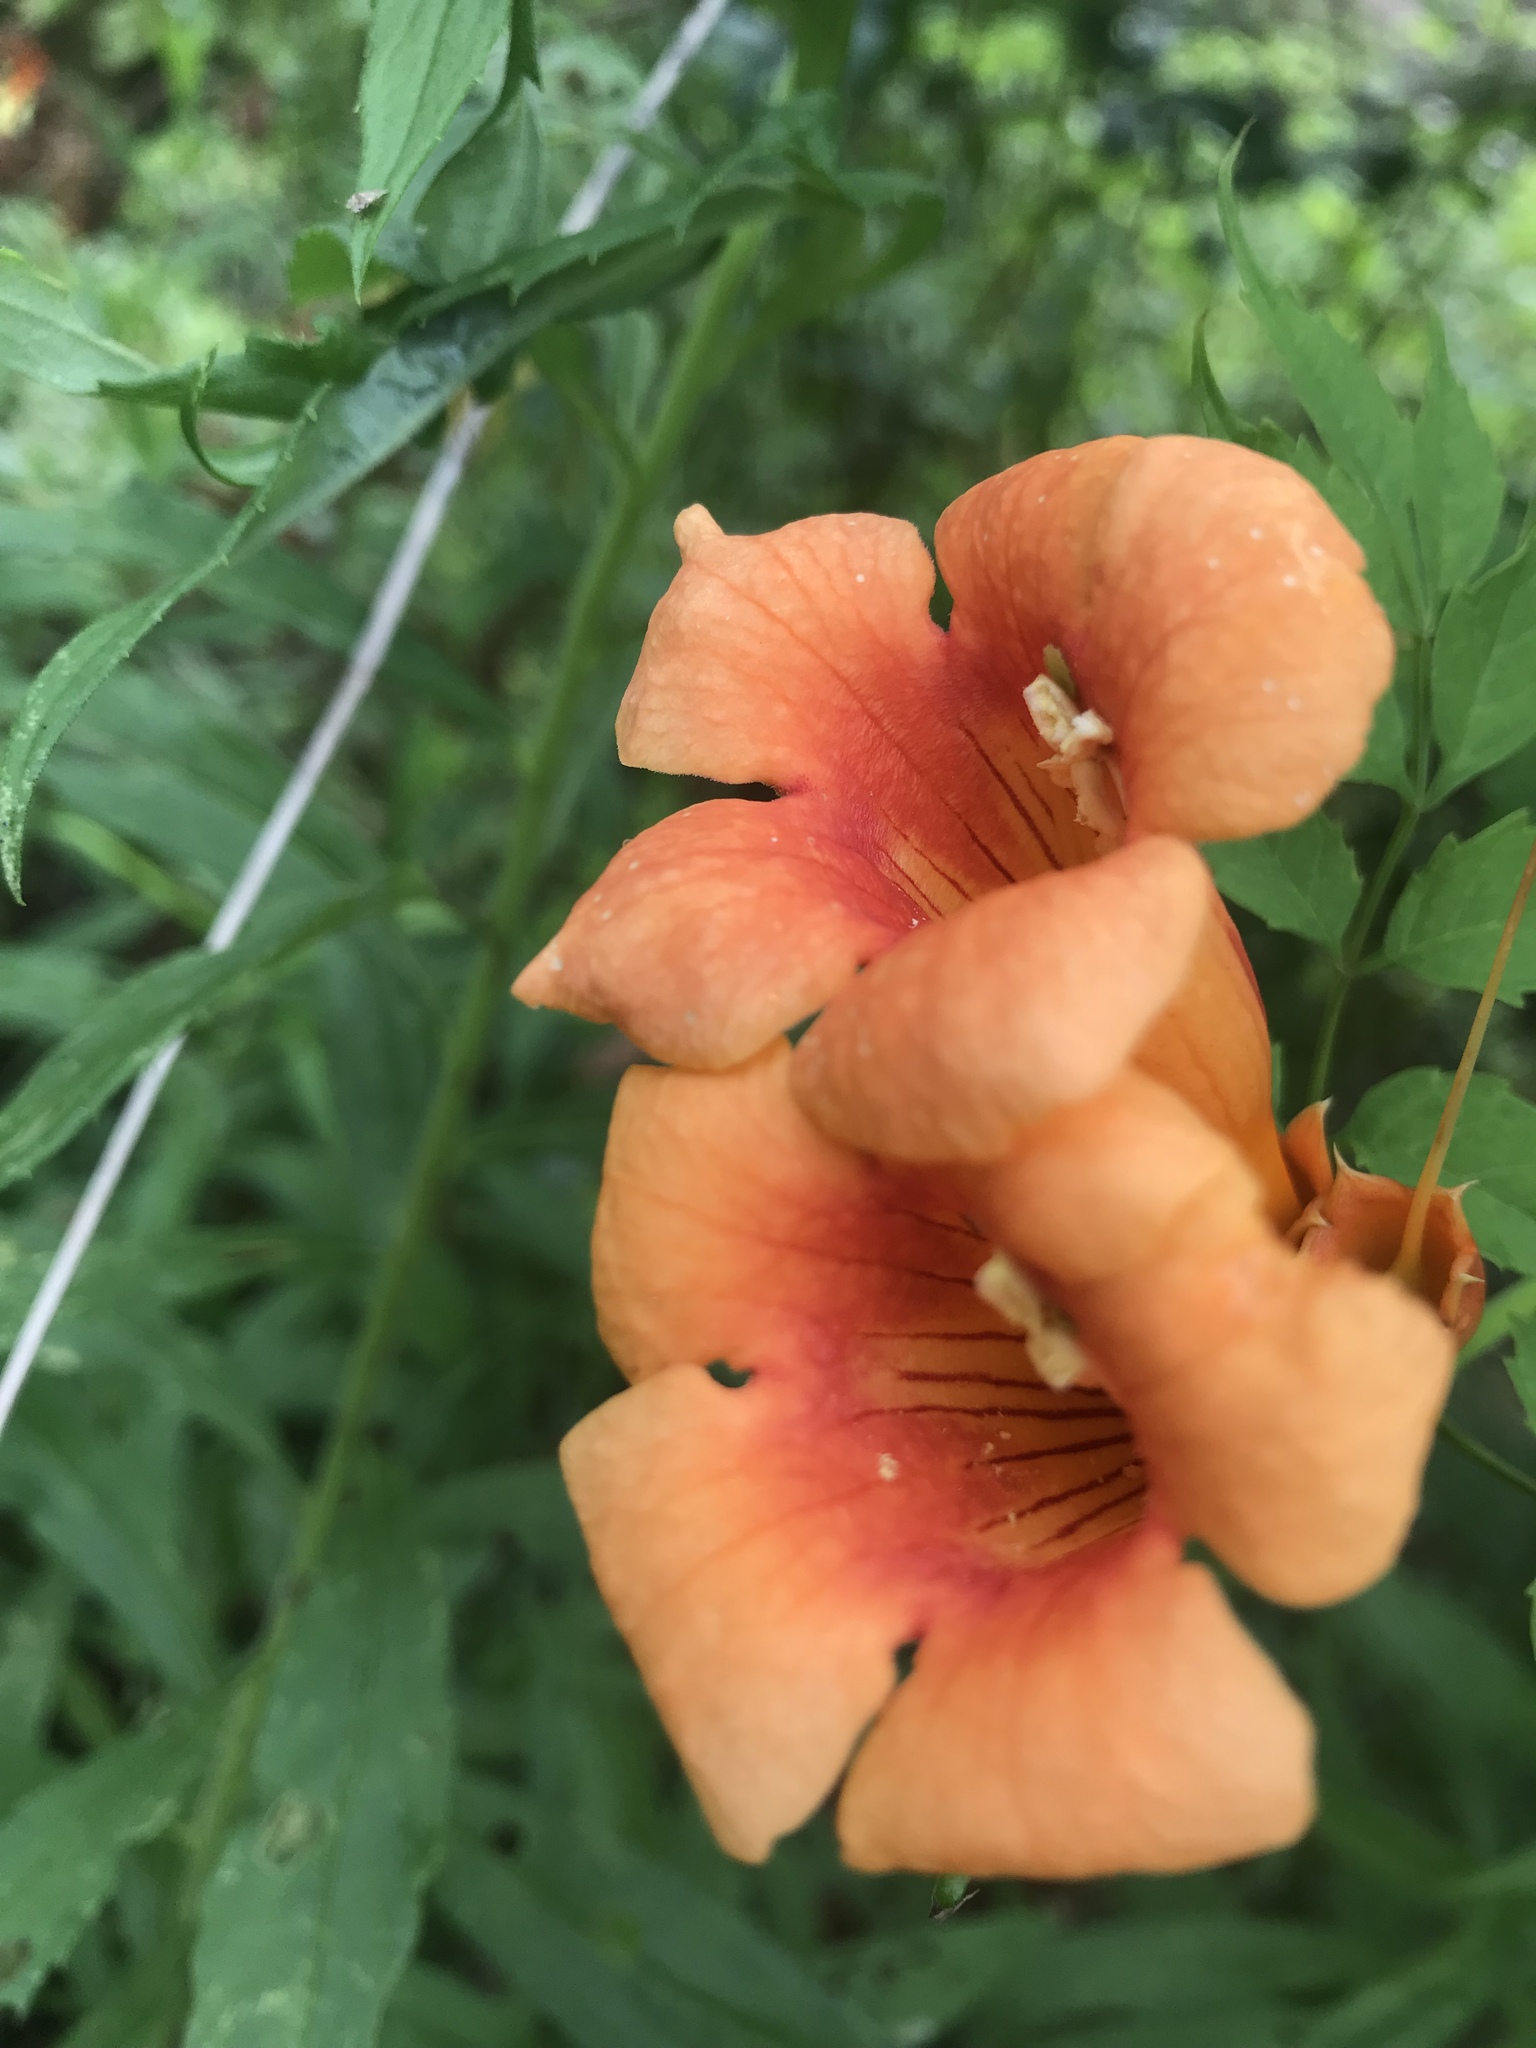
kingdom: Plantae
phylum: Tracheophyta
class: Magnoliopsida
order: Lamiales
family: Bignoniaceae
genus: Campsis
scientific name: Campsis radicans
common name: Trumpet-creeper
